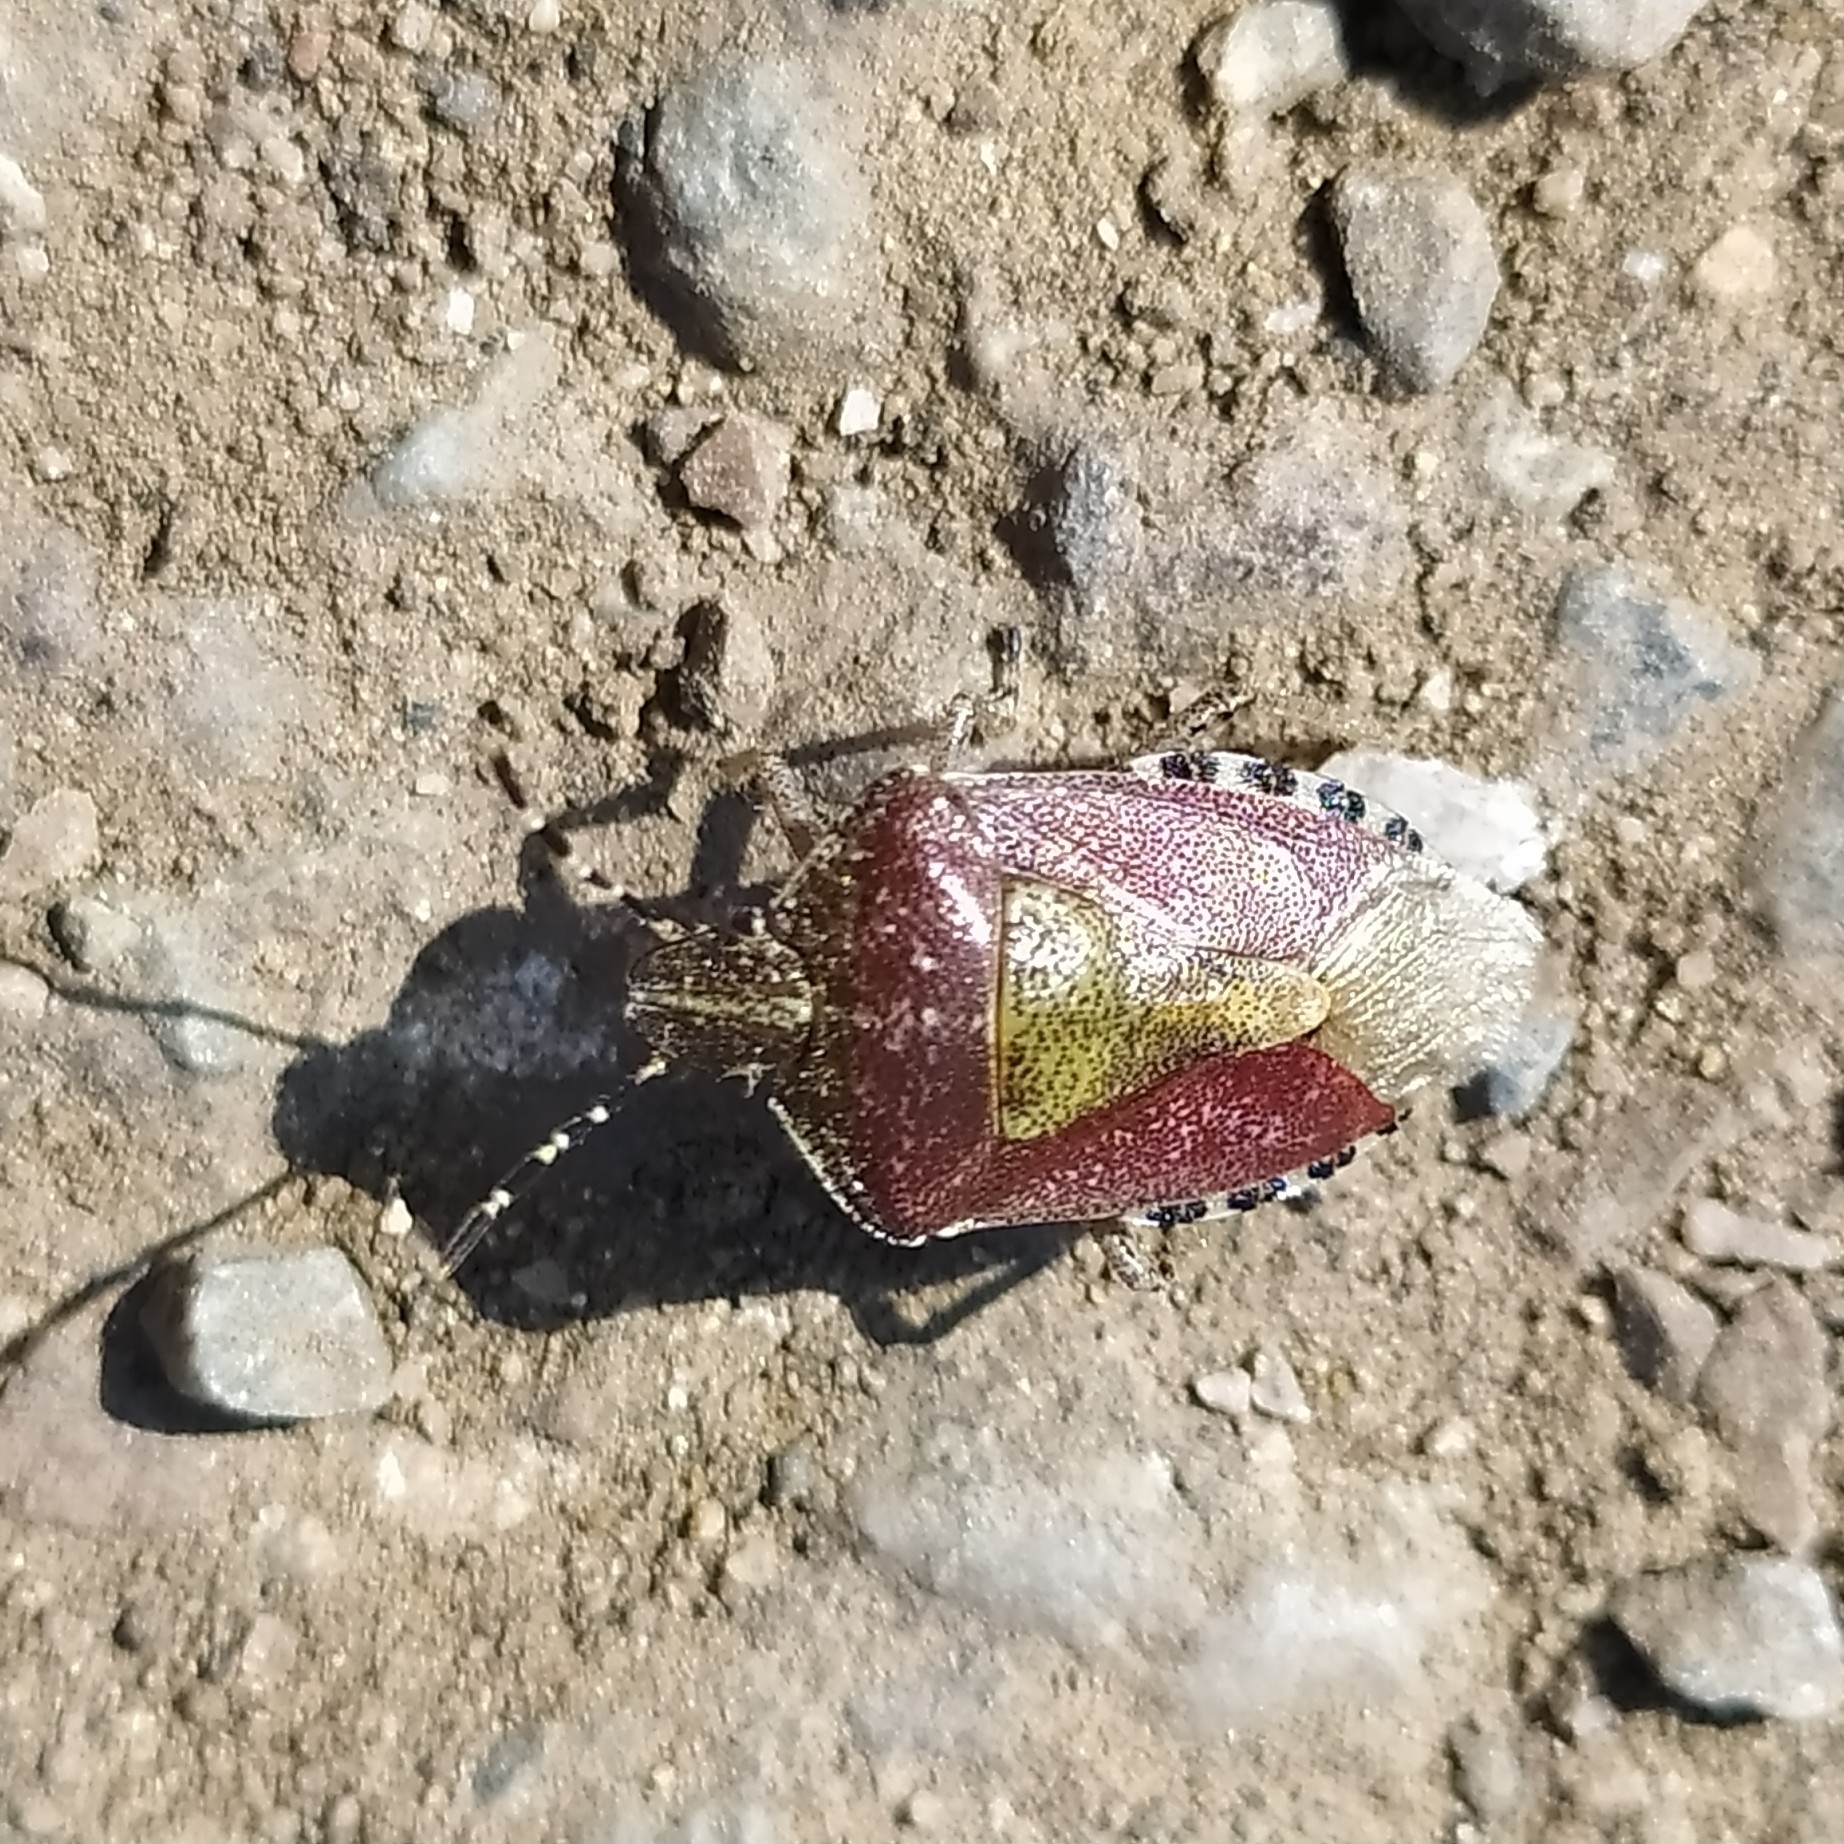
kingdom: Animalia
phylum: Arthropoda
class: Insecta
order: Hemiptera
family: Pentatomidae
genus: Dolycoris
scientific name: Dolycoris baccarum
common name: Sloe bug
